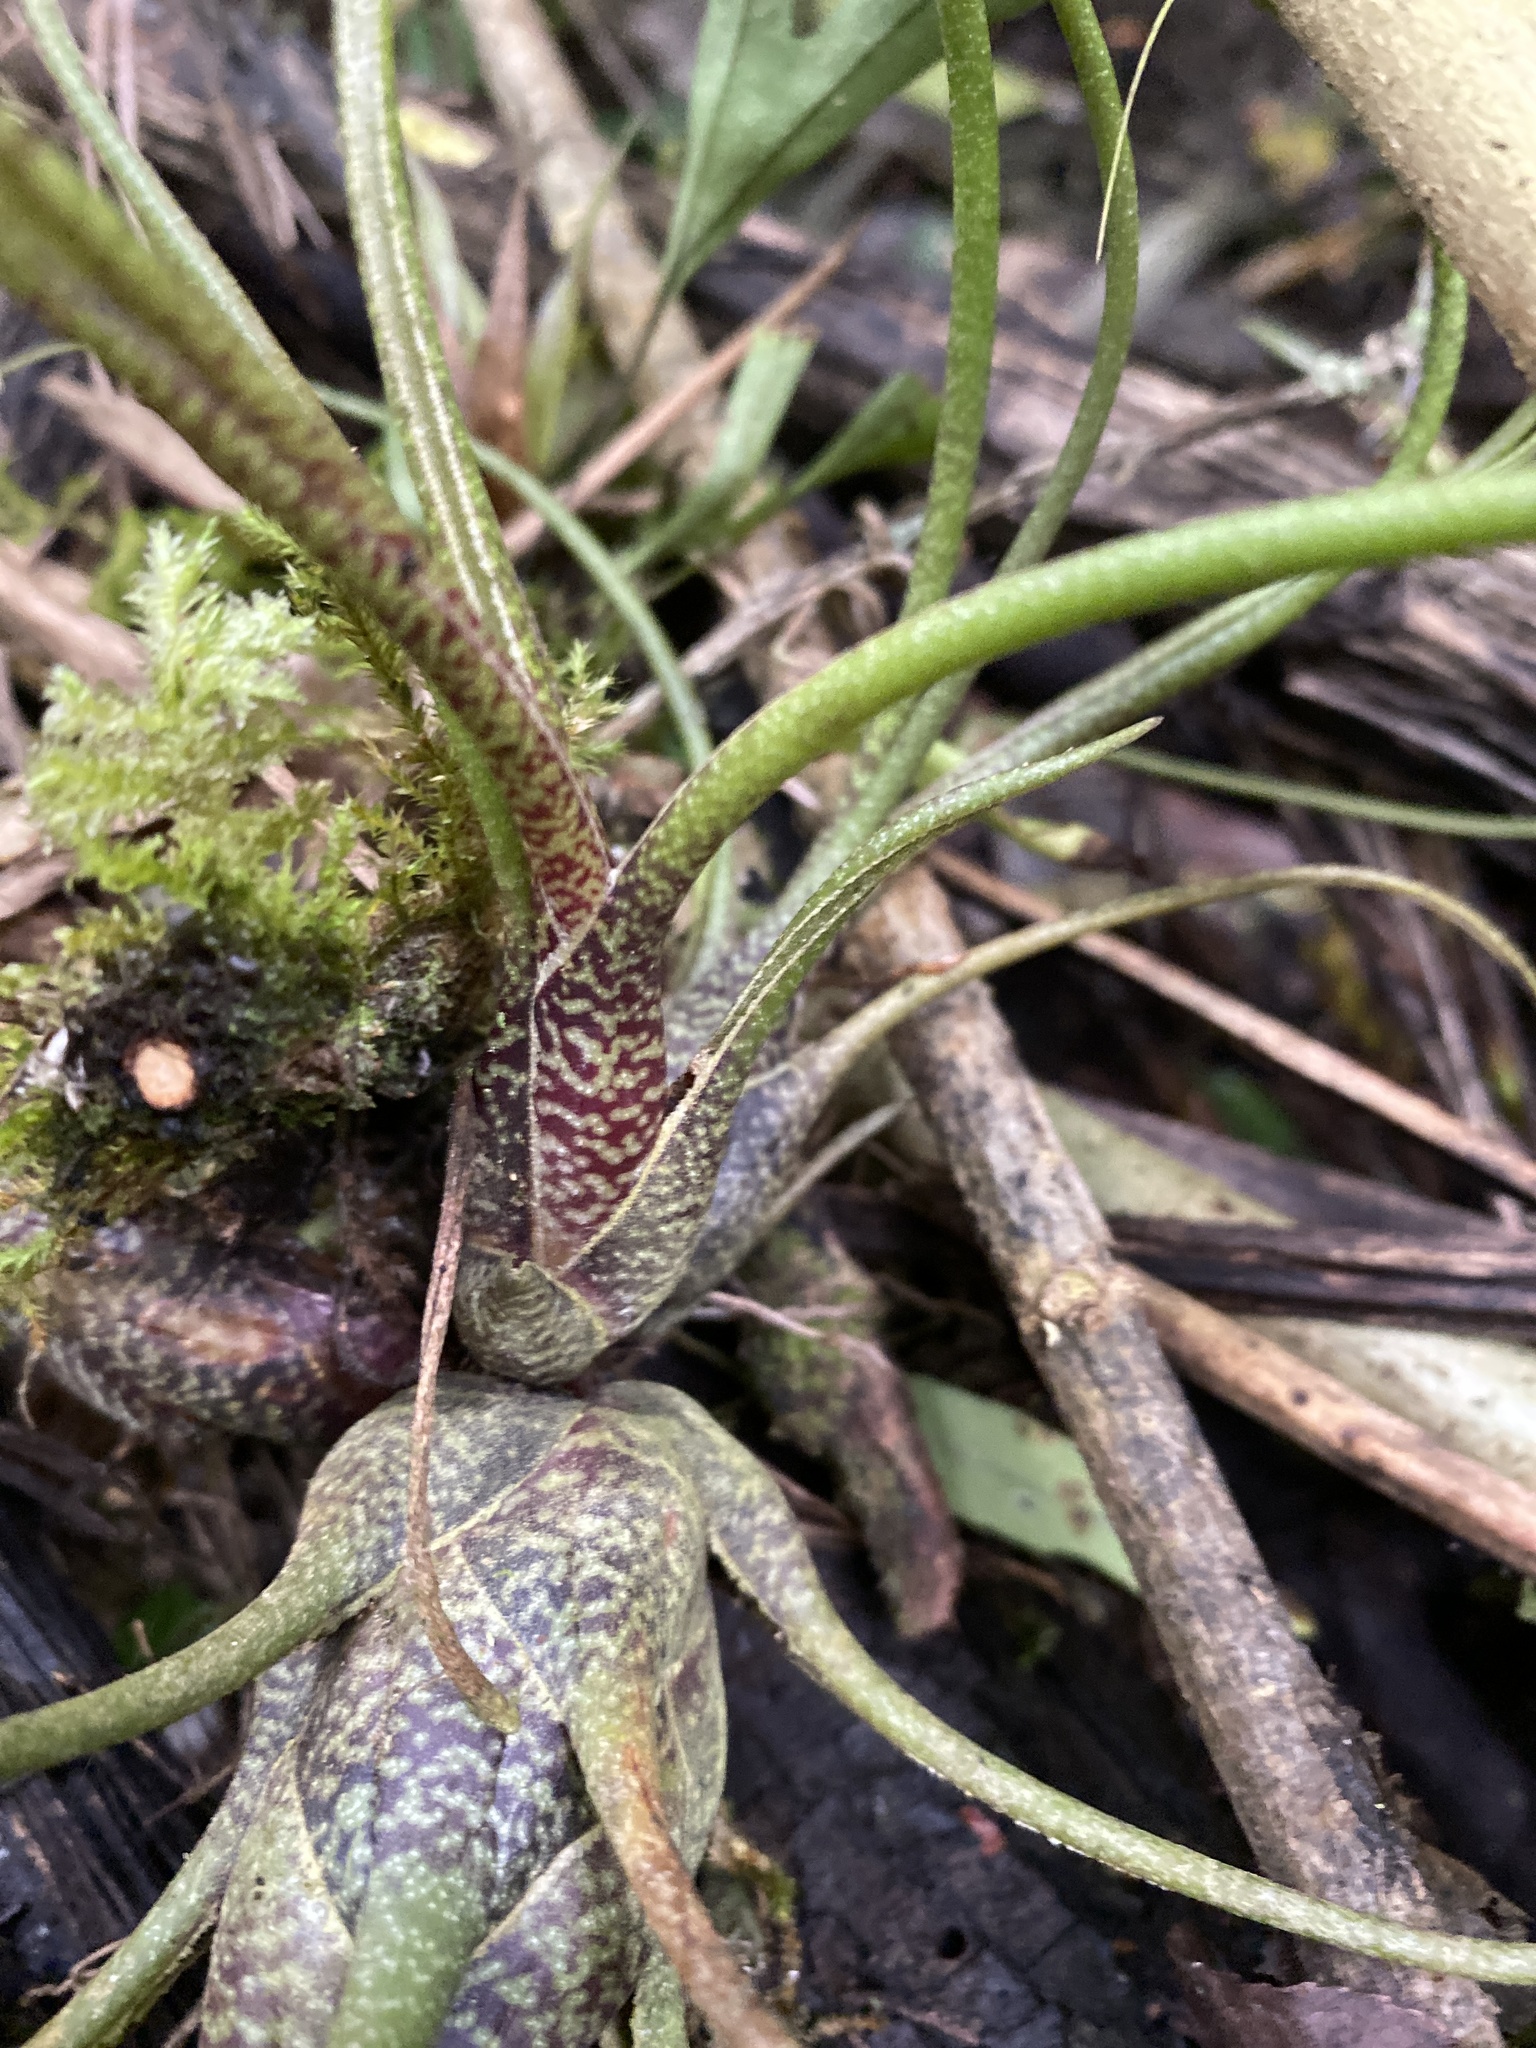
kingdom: Plantae
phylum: Tracheophyta
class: Liliopsida
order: Poales
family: Bromeliaceae
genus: Tillandsia
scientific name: Tillandsia butzii
